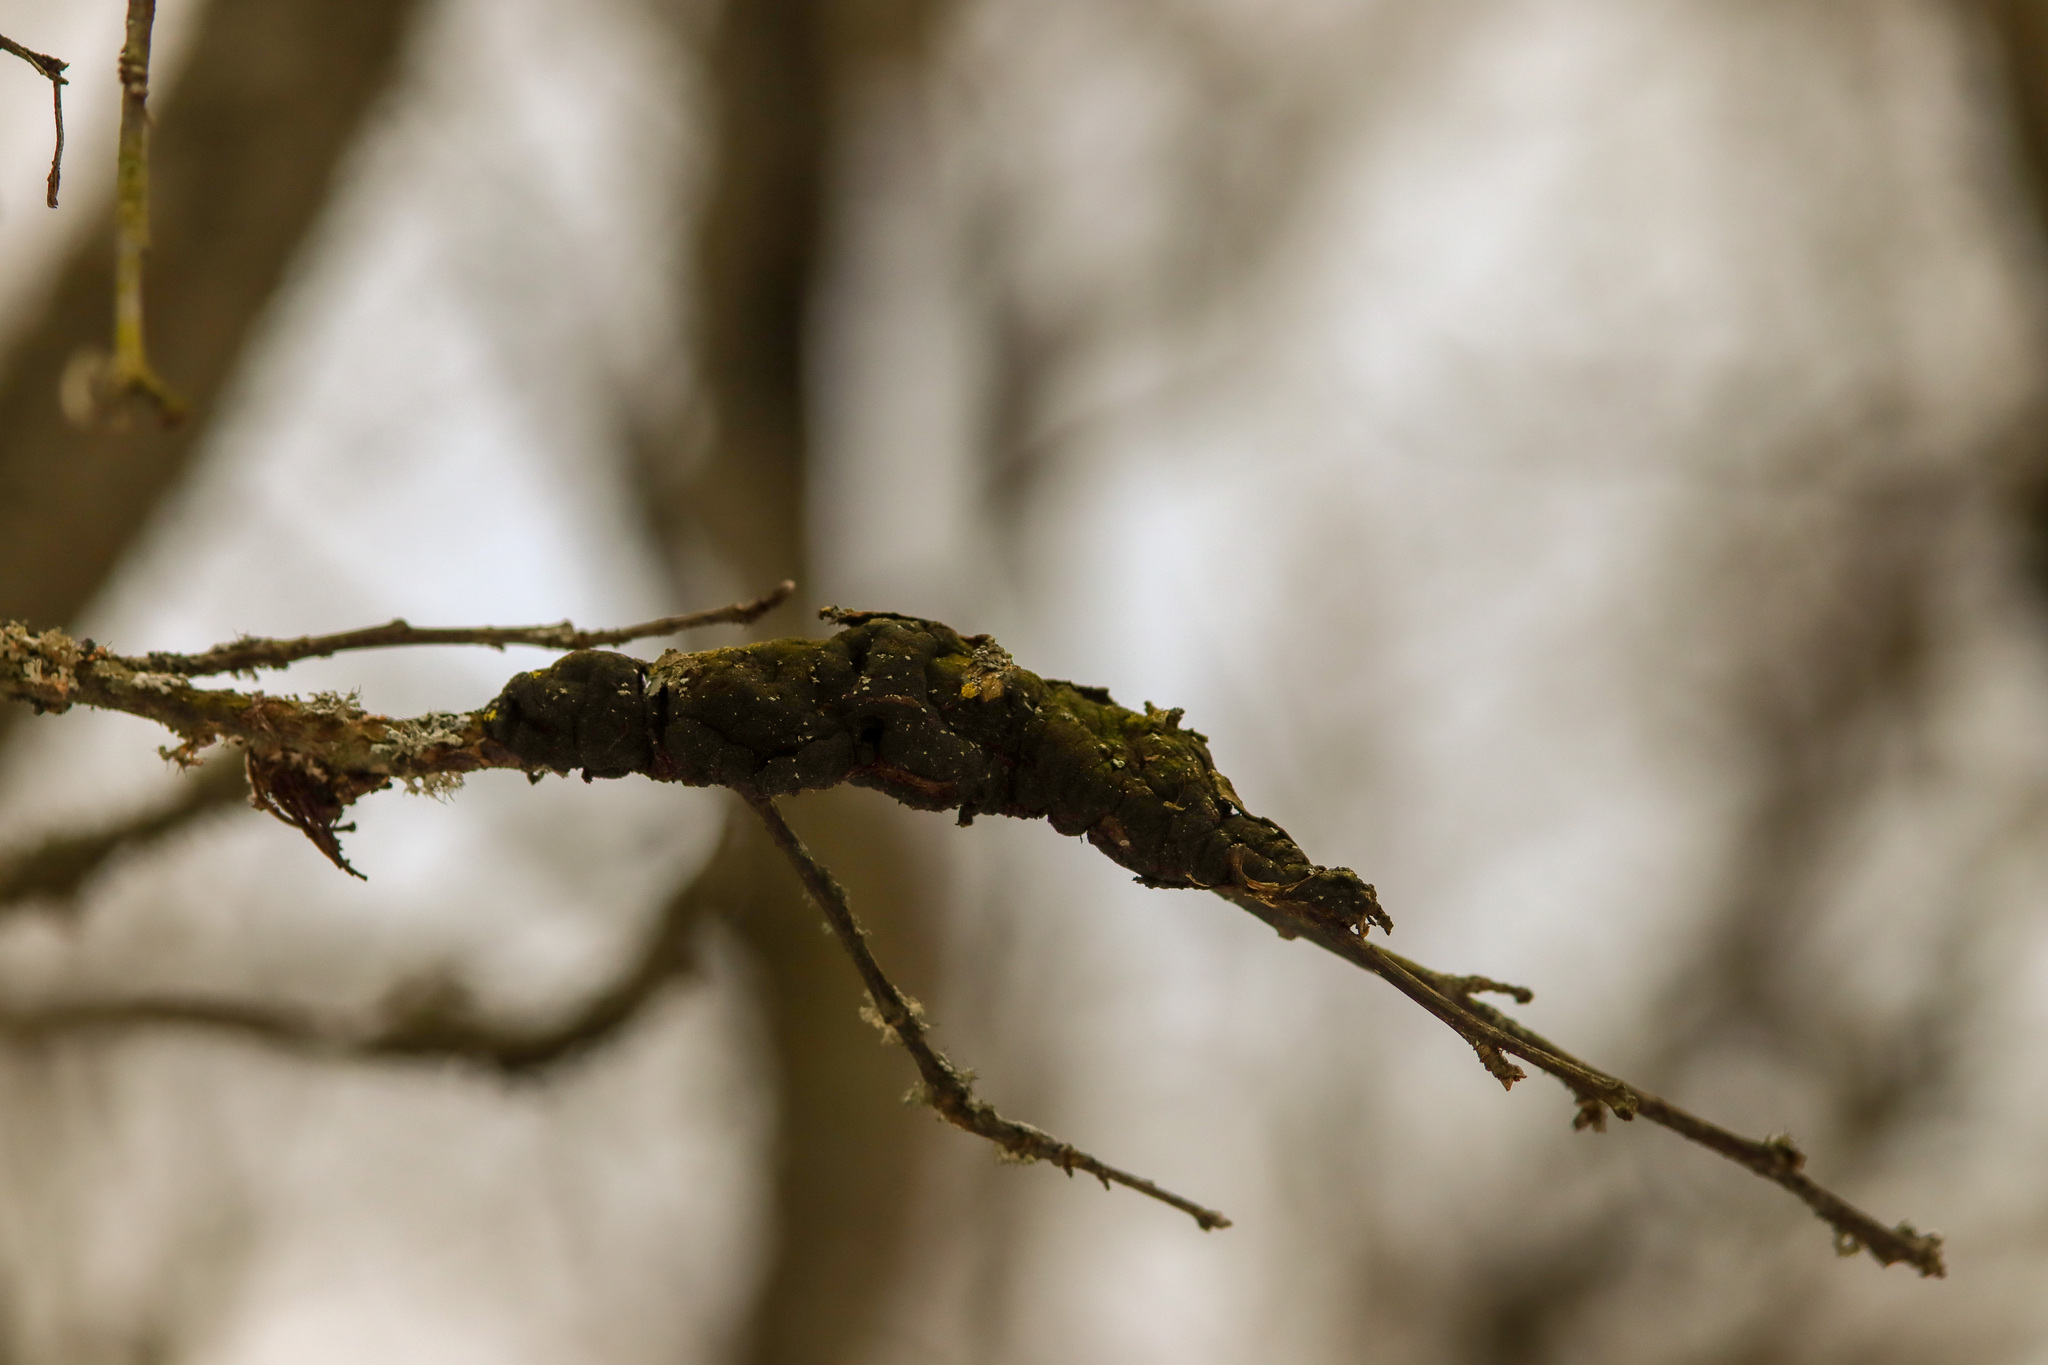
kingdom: Fungi
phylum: Ascomycota
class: Dothideomycetes
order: Venturiales
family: Venturiaceae
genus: Apiosporina
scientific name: Apiosporina morbosa
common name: Black knot
